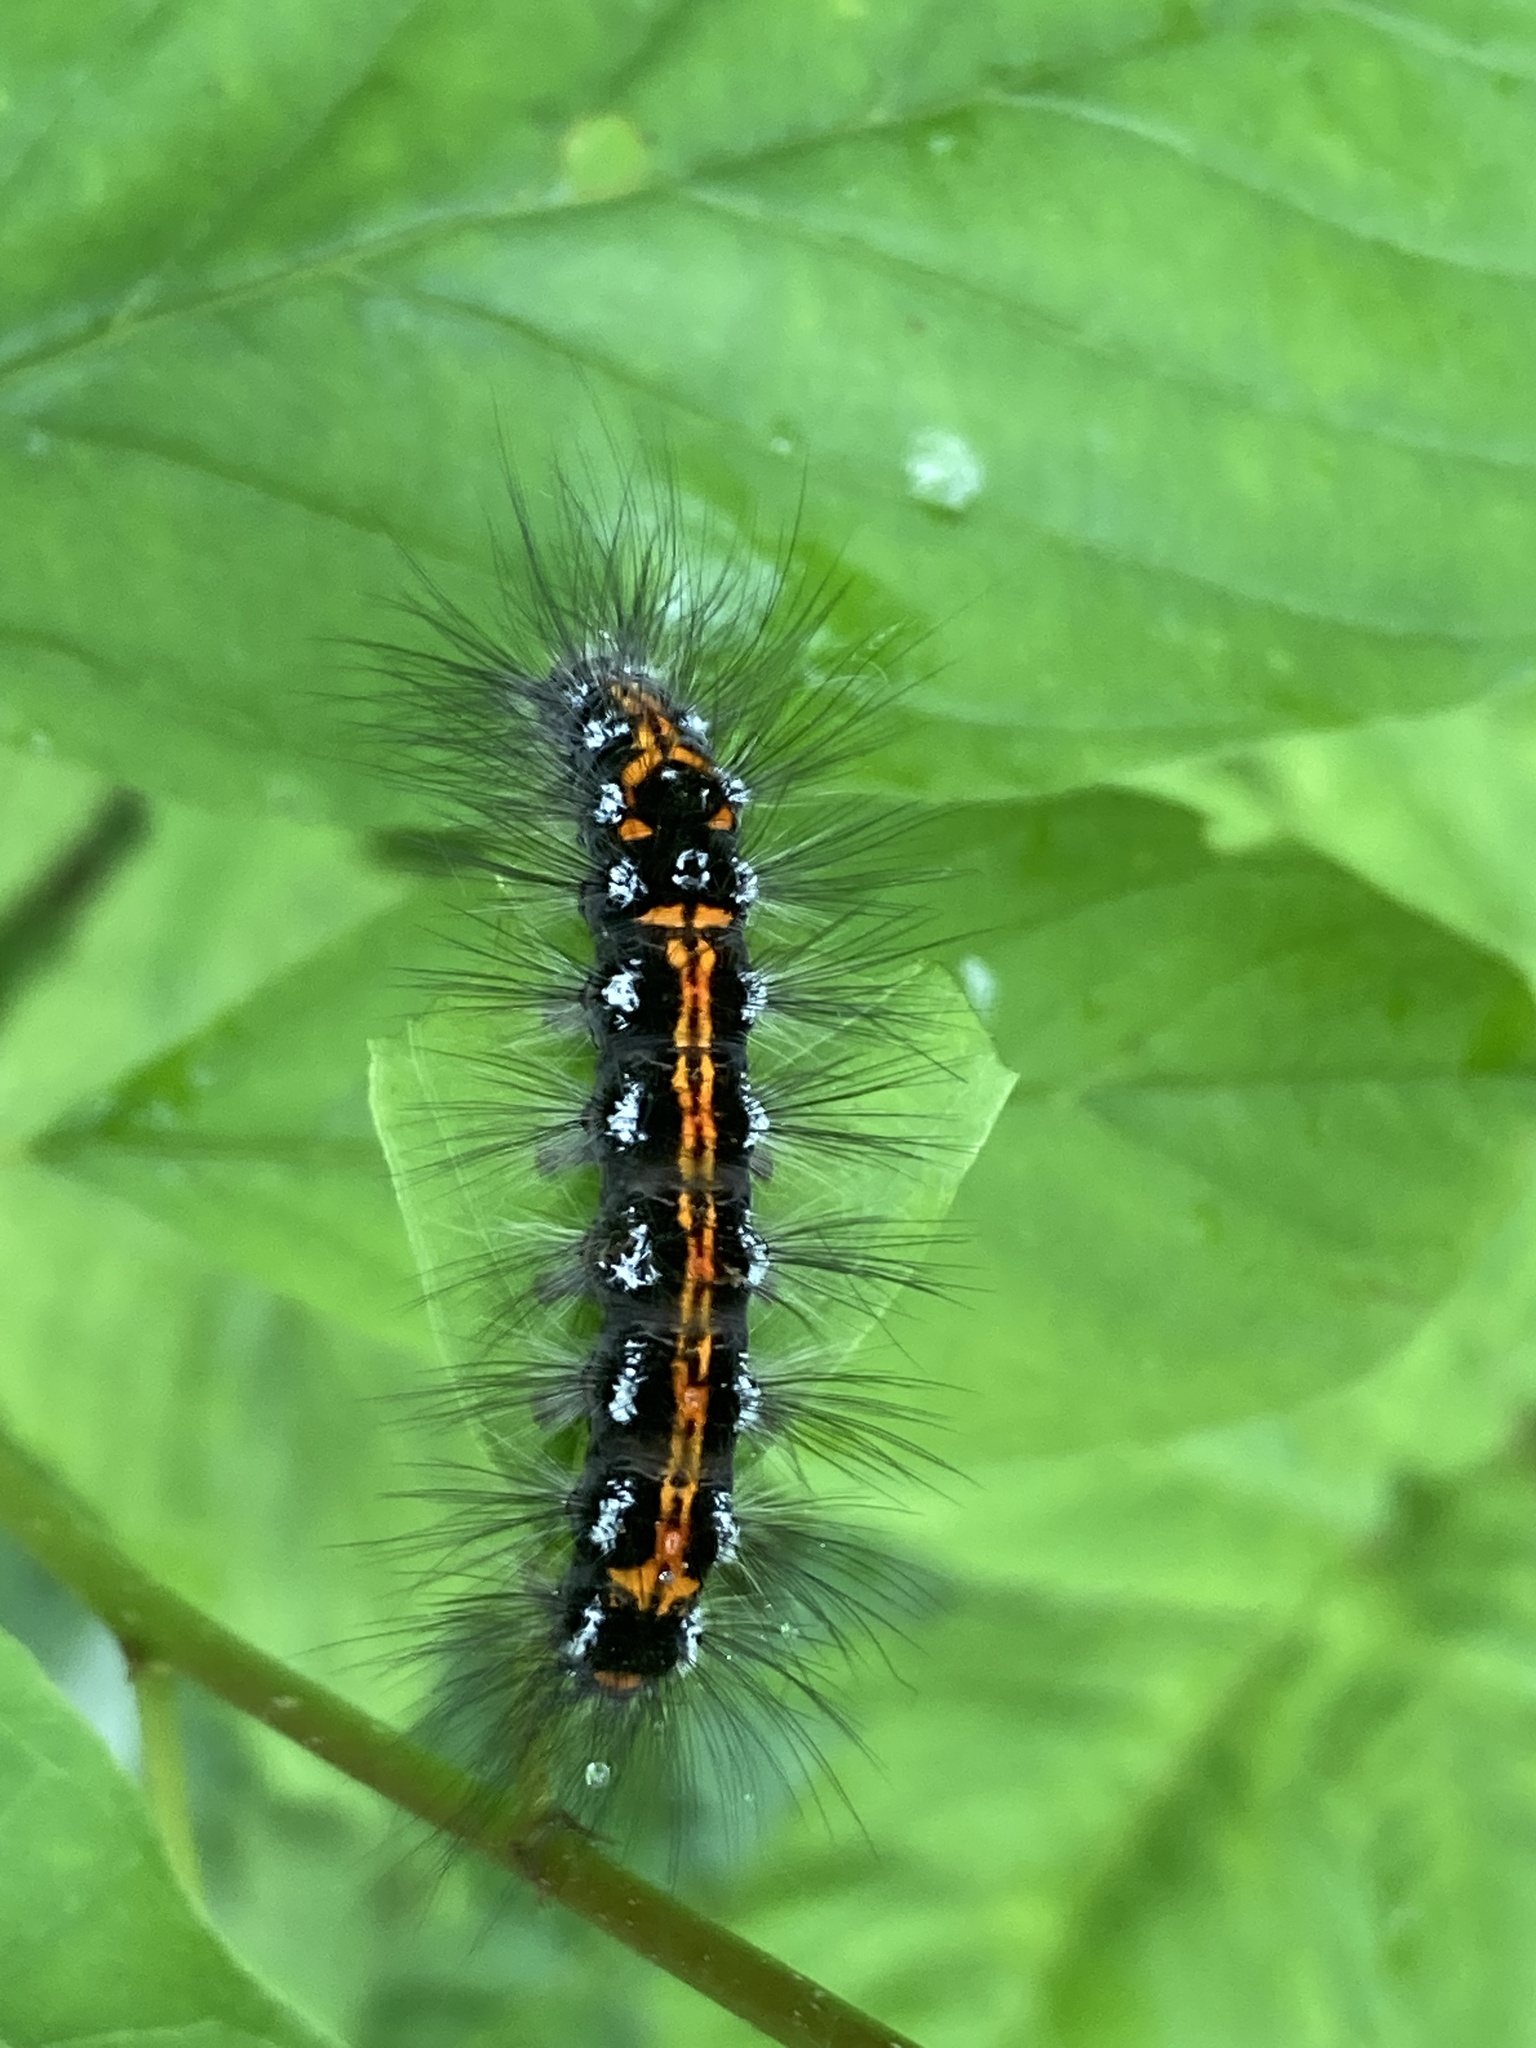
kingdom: Animalia
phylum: Arthropoda
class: Insecta
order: Lepidoptera
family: Erebidae
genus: Sphrageidus
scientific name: Sphrageidus similis
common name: Yellow-tail
